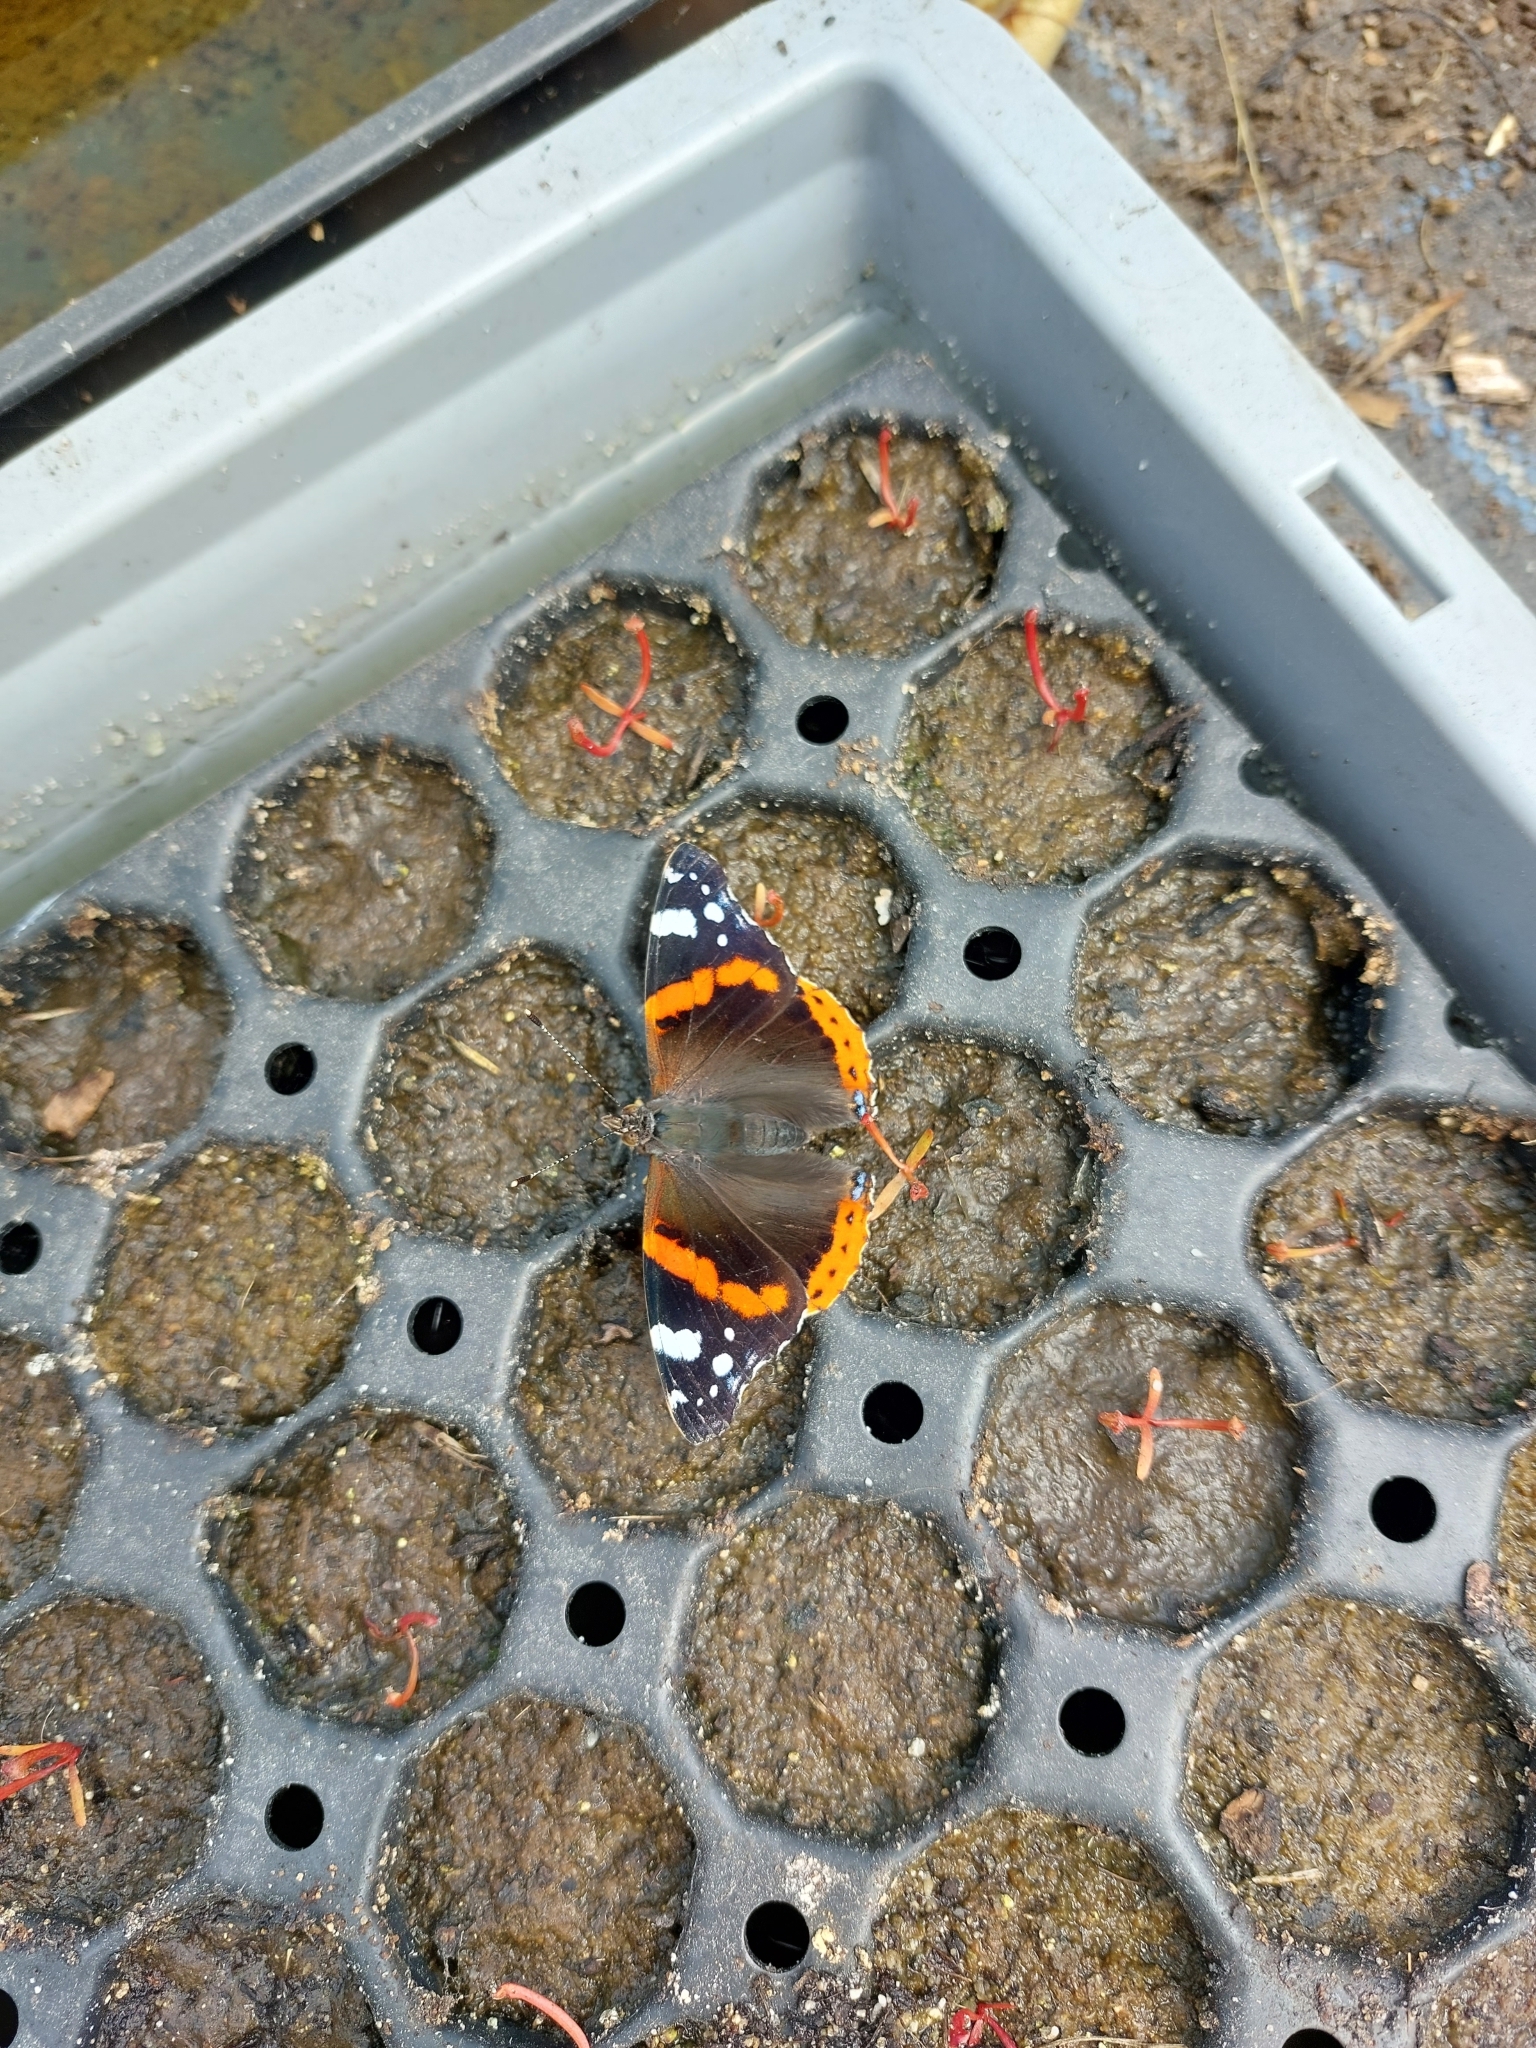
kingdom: Animalia
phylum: Arthropoda
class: Insecta
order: Lepidoptera
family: Nymphalidae
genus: Vanessa
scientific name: Vanessa atalanta
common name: Red admiral
